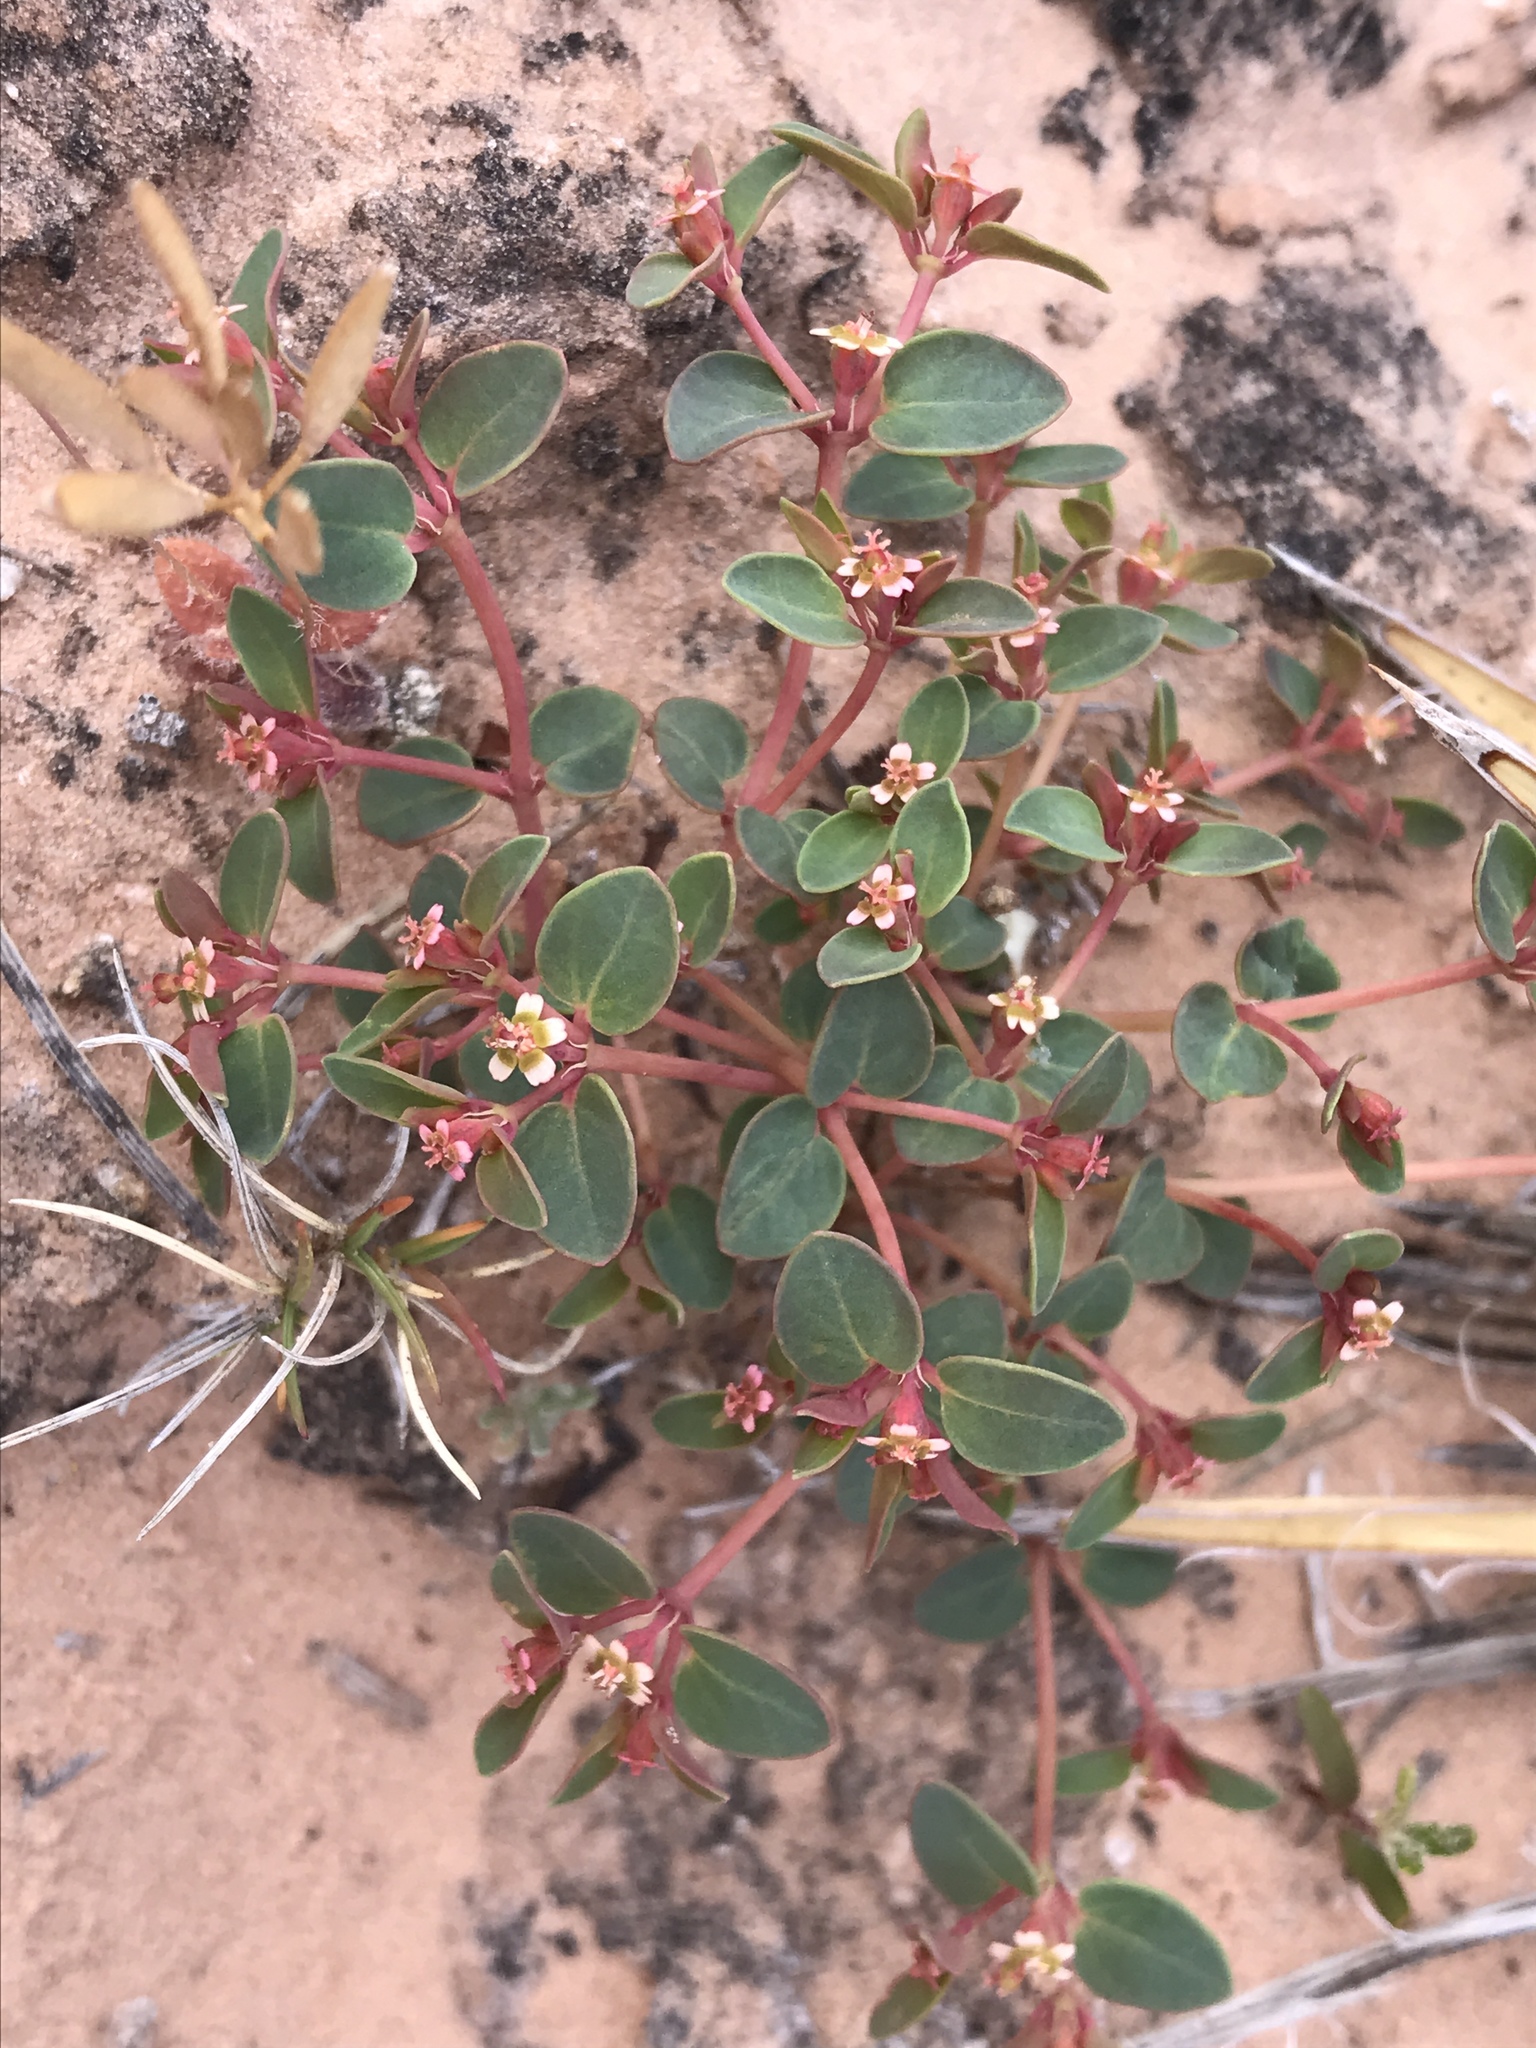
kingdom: Plantae
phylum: Tracheophyta
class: Magnoliopsida
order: Malpighiales
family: Euphorbiaceae
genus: Euphorbia
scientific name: Euphorbia fendleri
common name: Fendler's euphorbia
